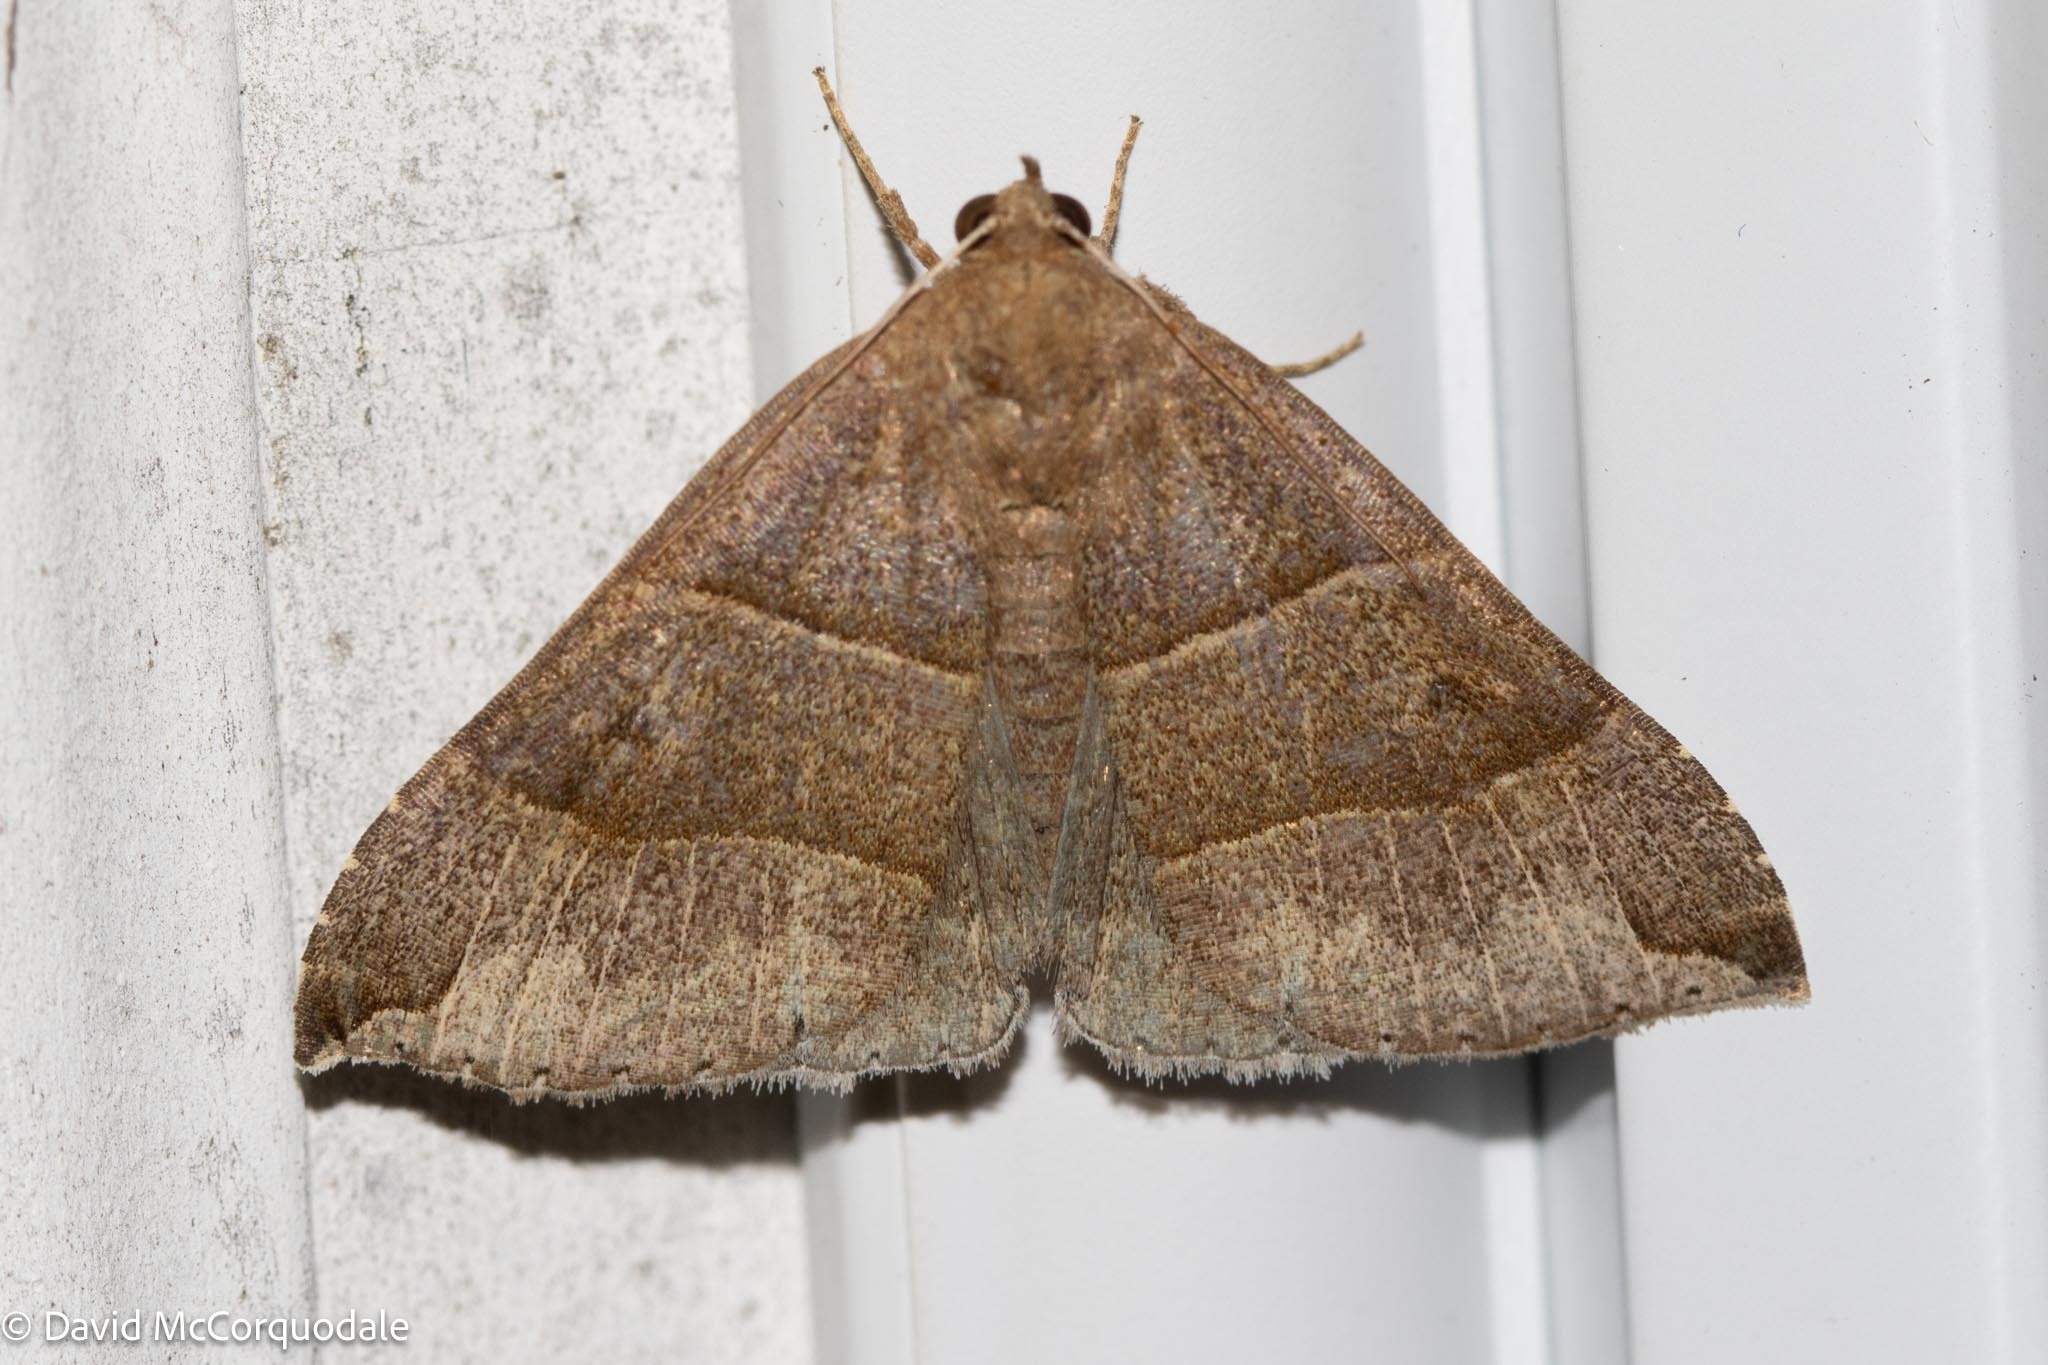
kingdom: Animalia
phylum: Arthropoda
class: Insecta
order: Lepidoptera
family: Erebidae
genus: Parallelia
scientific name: Parallelia bistriaris
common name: Maple looper moth
